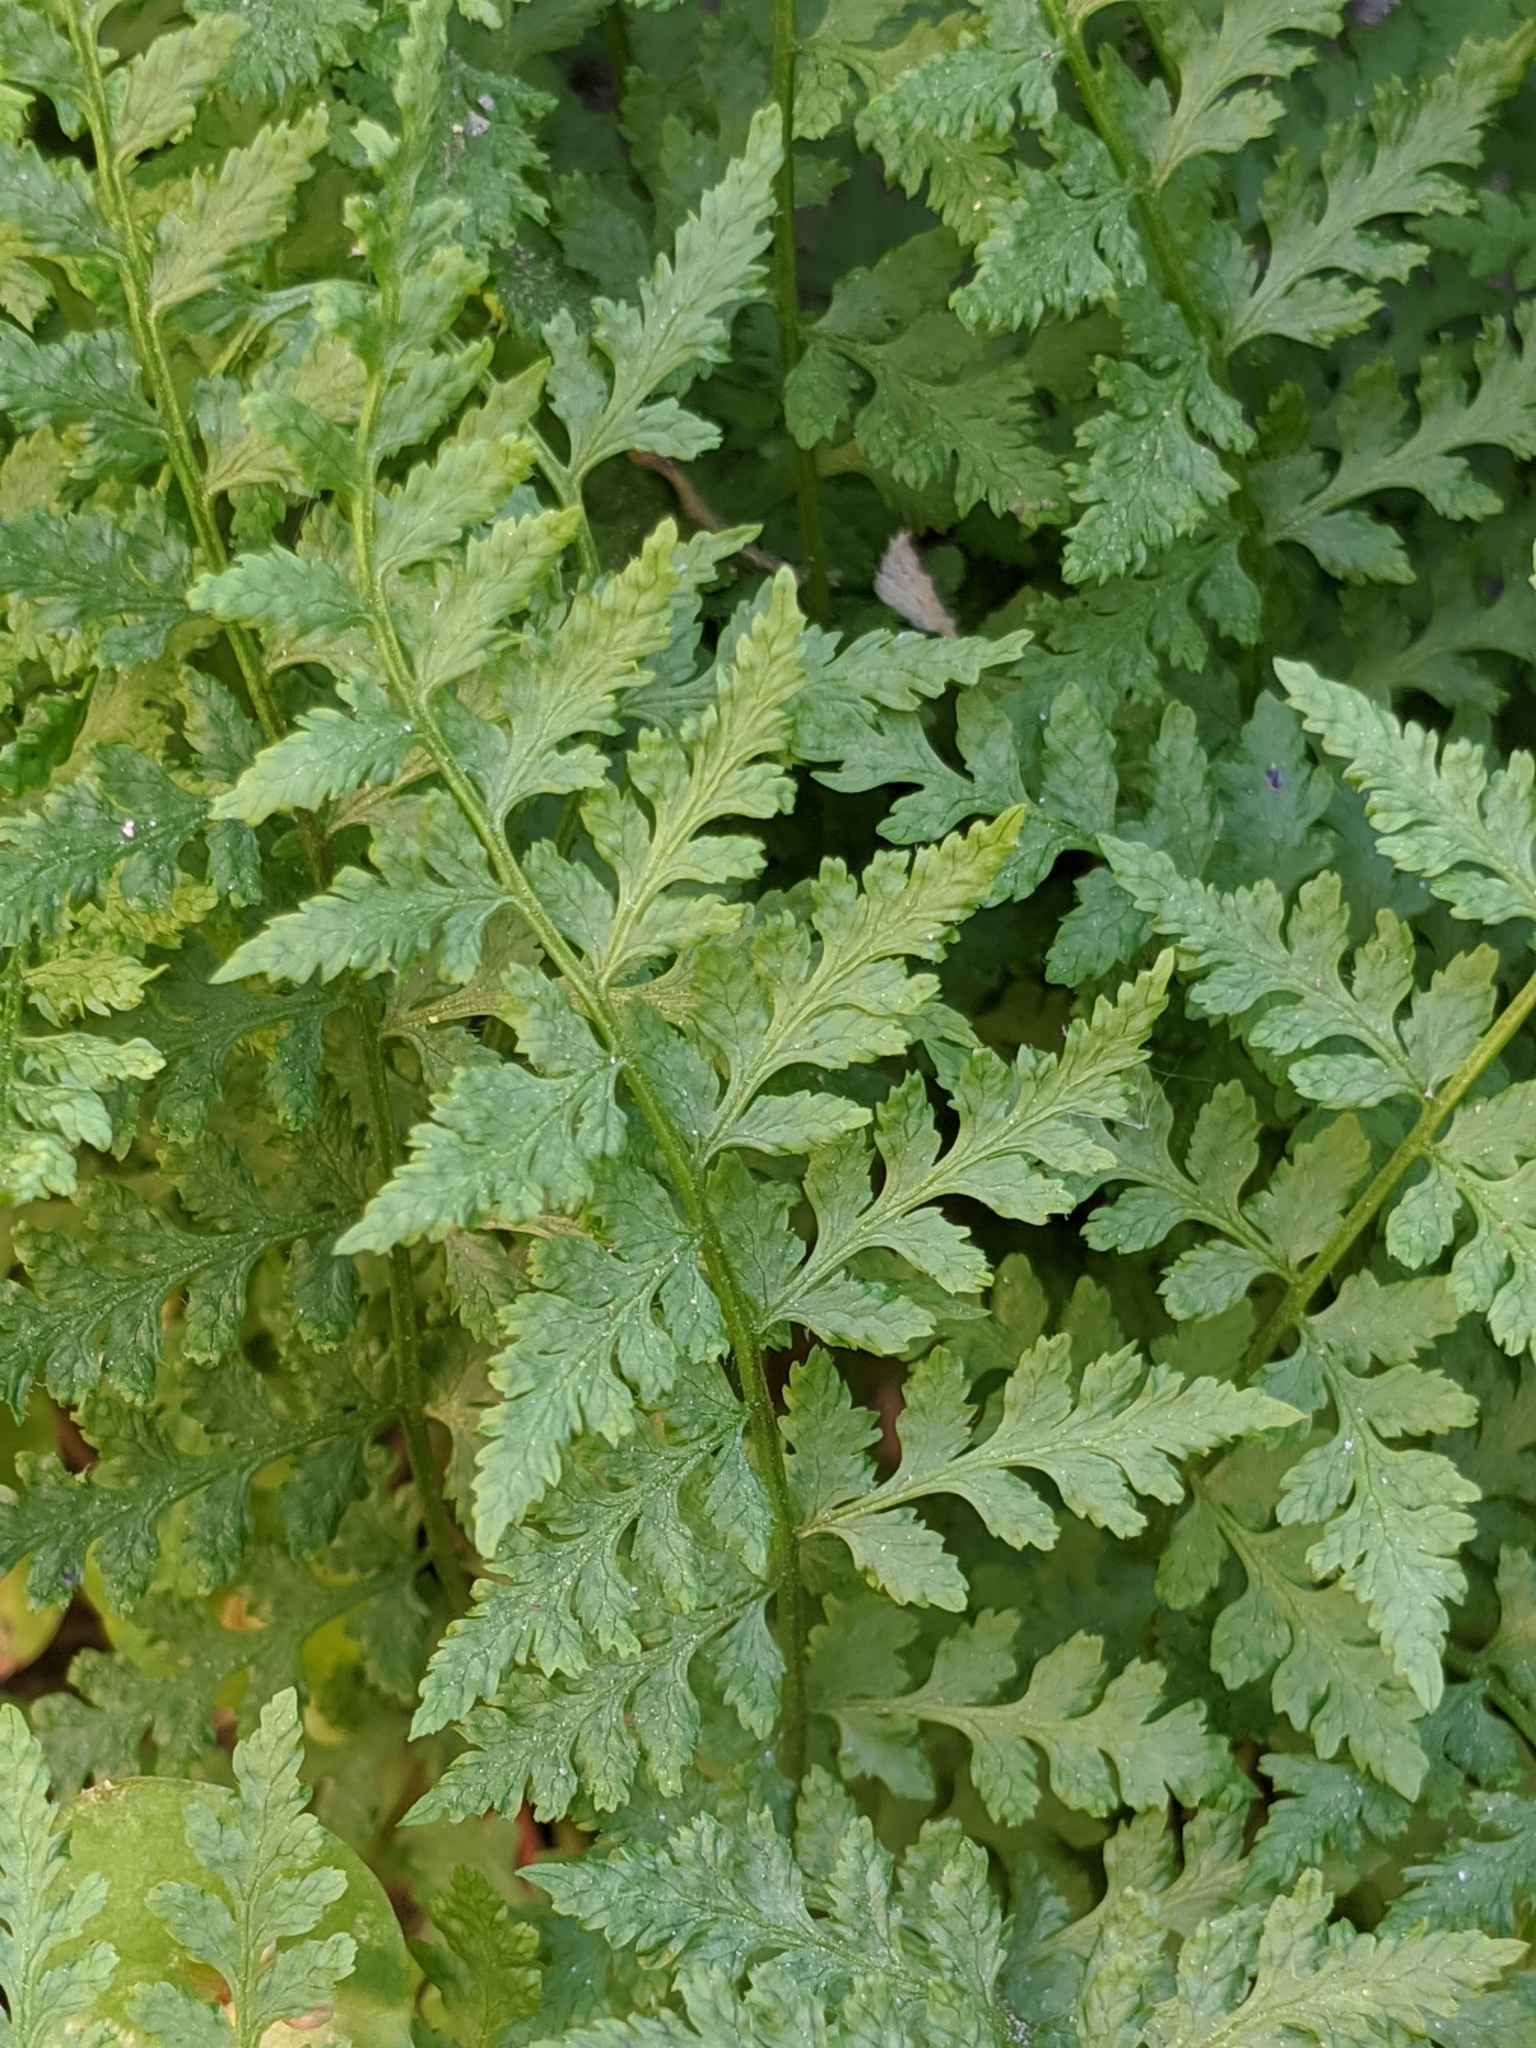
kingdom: Plantae
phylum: Tracheophyta
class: Polypodiopsida
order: Polypodiales
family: Cystopteridaceae
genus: Cystopteris
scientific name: Cystopteris fragilis
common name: Brittle bladder fern
